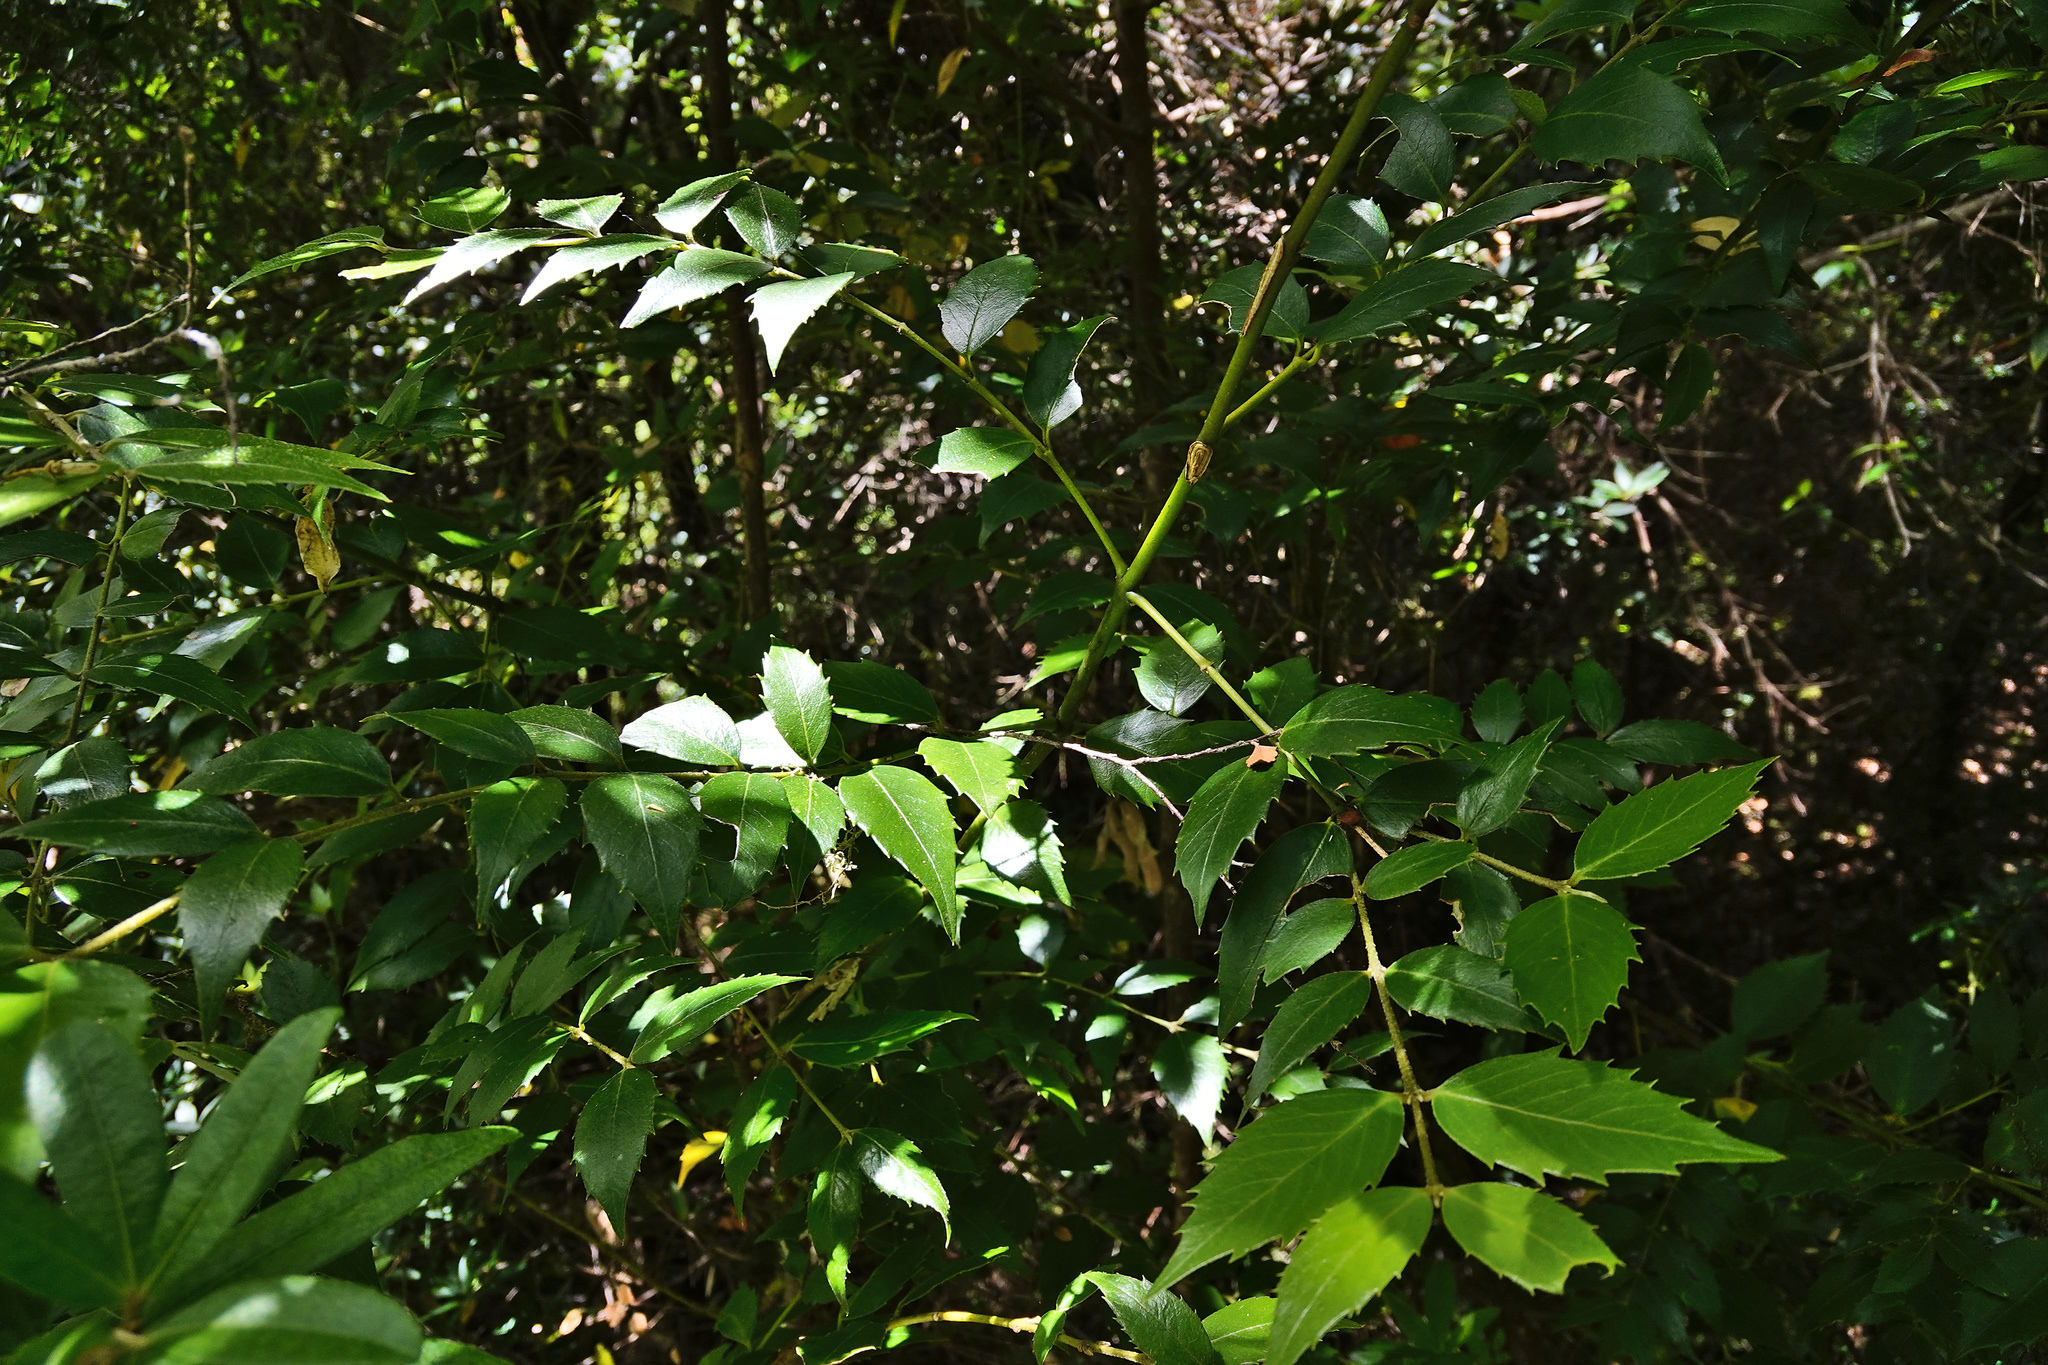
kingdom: Plantae
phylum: Tracheophyta
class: Magnoliopsida
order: Laurales
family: Atherospermataceae
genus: Atherosperma
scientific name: Atherosperma moschatum
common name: Tasmanian-sassafras
